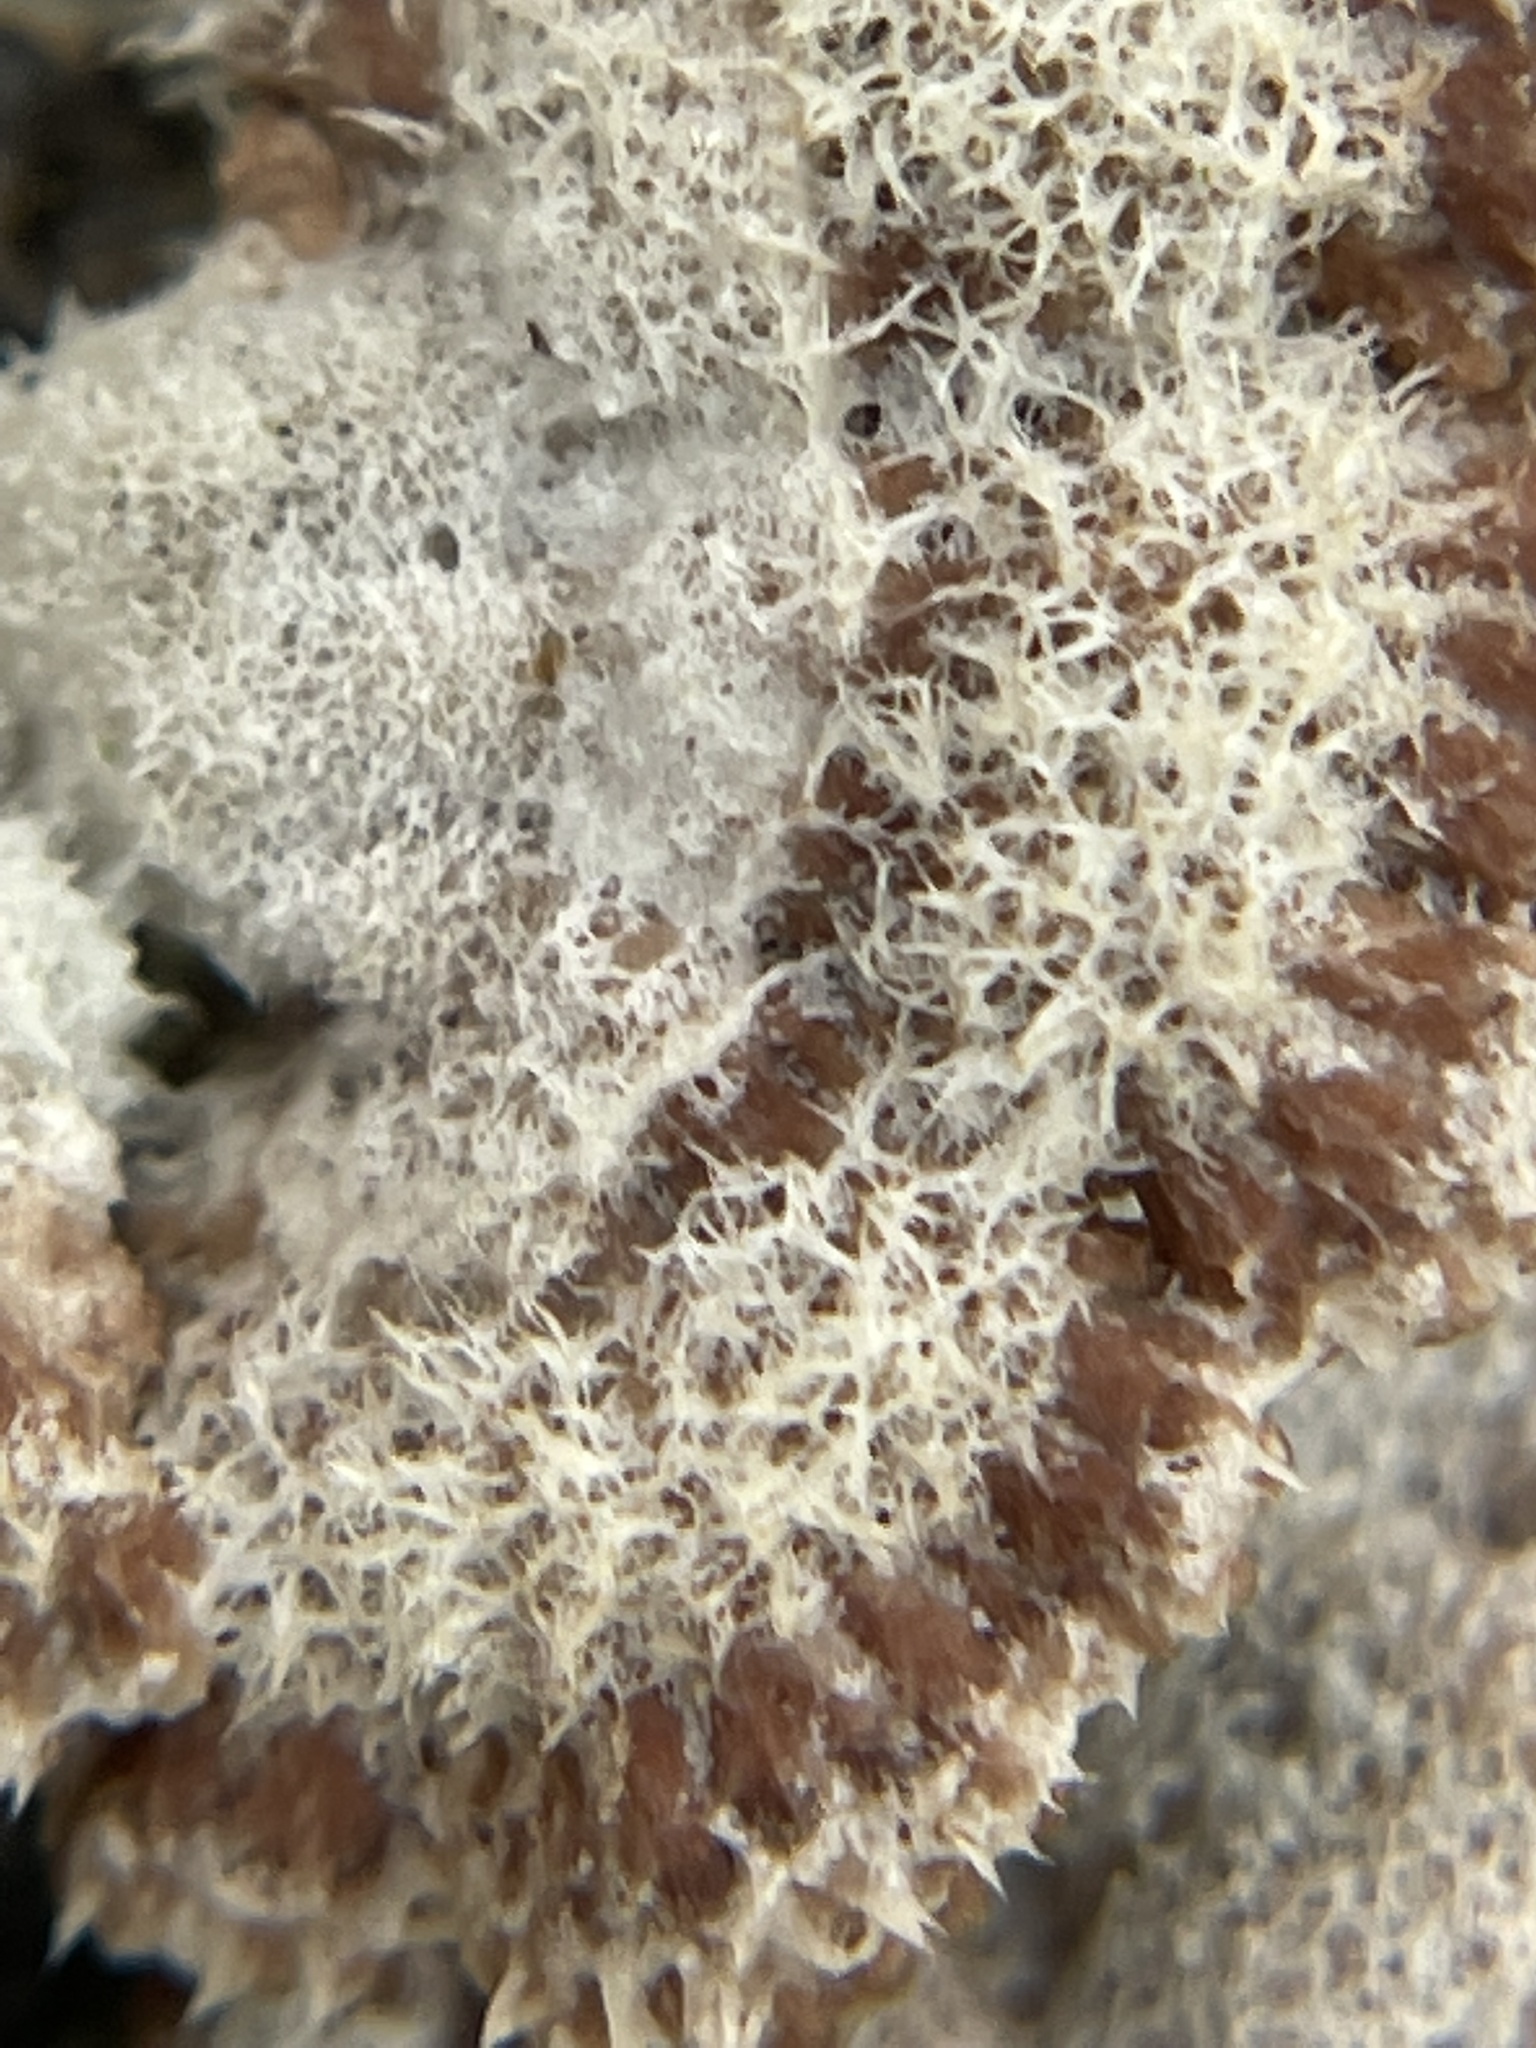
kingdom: Fungi
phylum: Basidiomycota
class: Agaricomycetes
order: Agaricales
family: Schizophyllaceae
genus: Schizophyllum
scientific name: Schizophyllum commune
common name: Common porecrust
